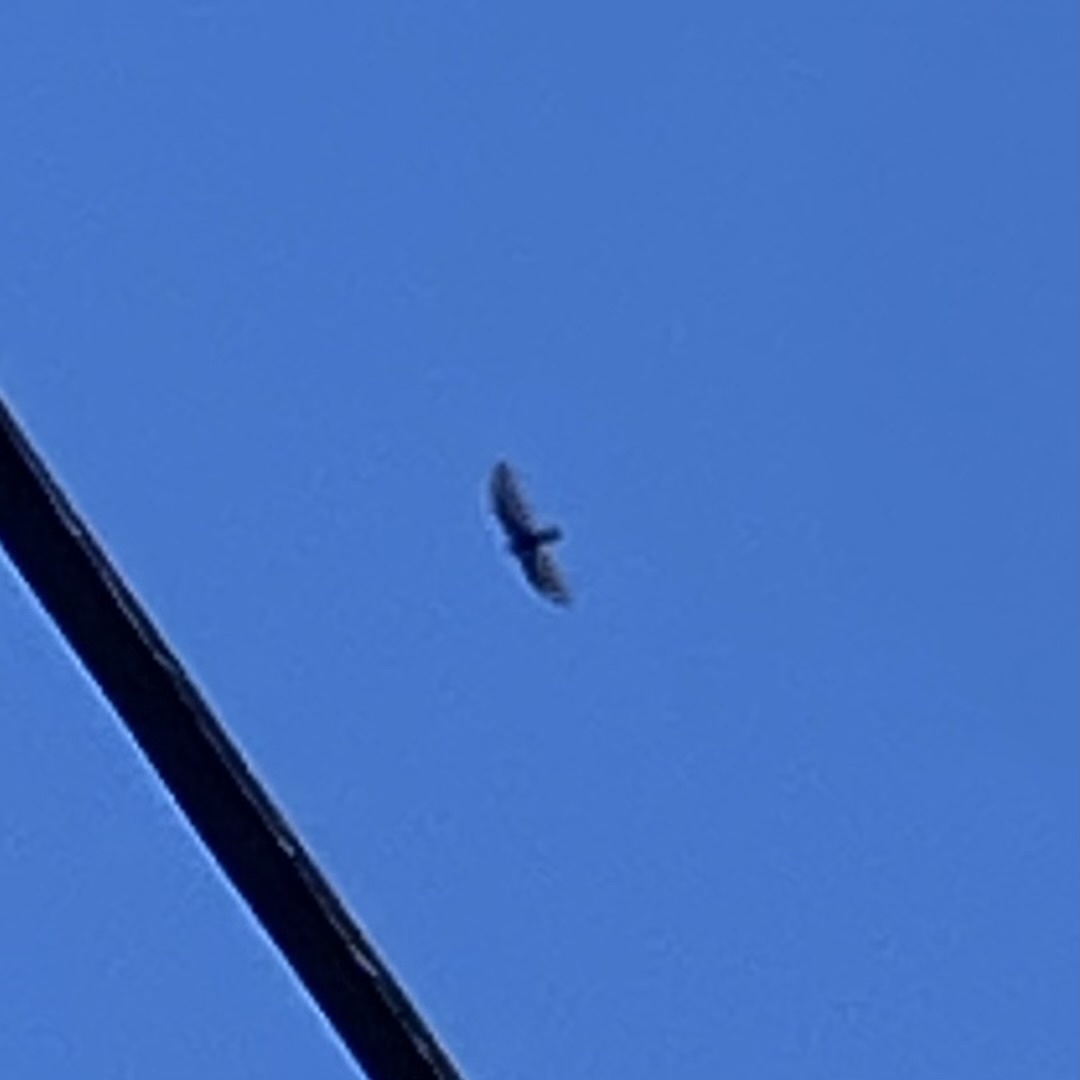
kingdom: Animalia
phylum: Chordata
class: Aves
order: Accipitriformes
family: Cathartidae
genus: Cathartes
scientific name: Cathartes aura
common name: Turkey vulture
